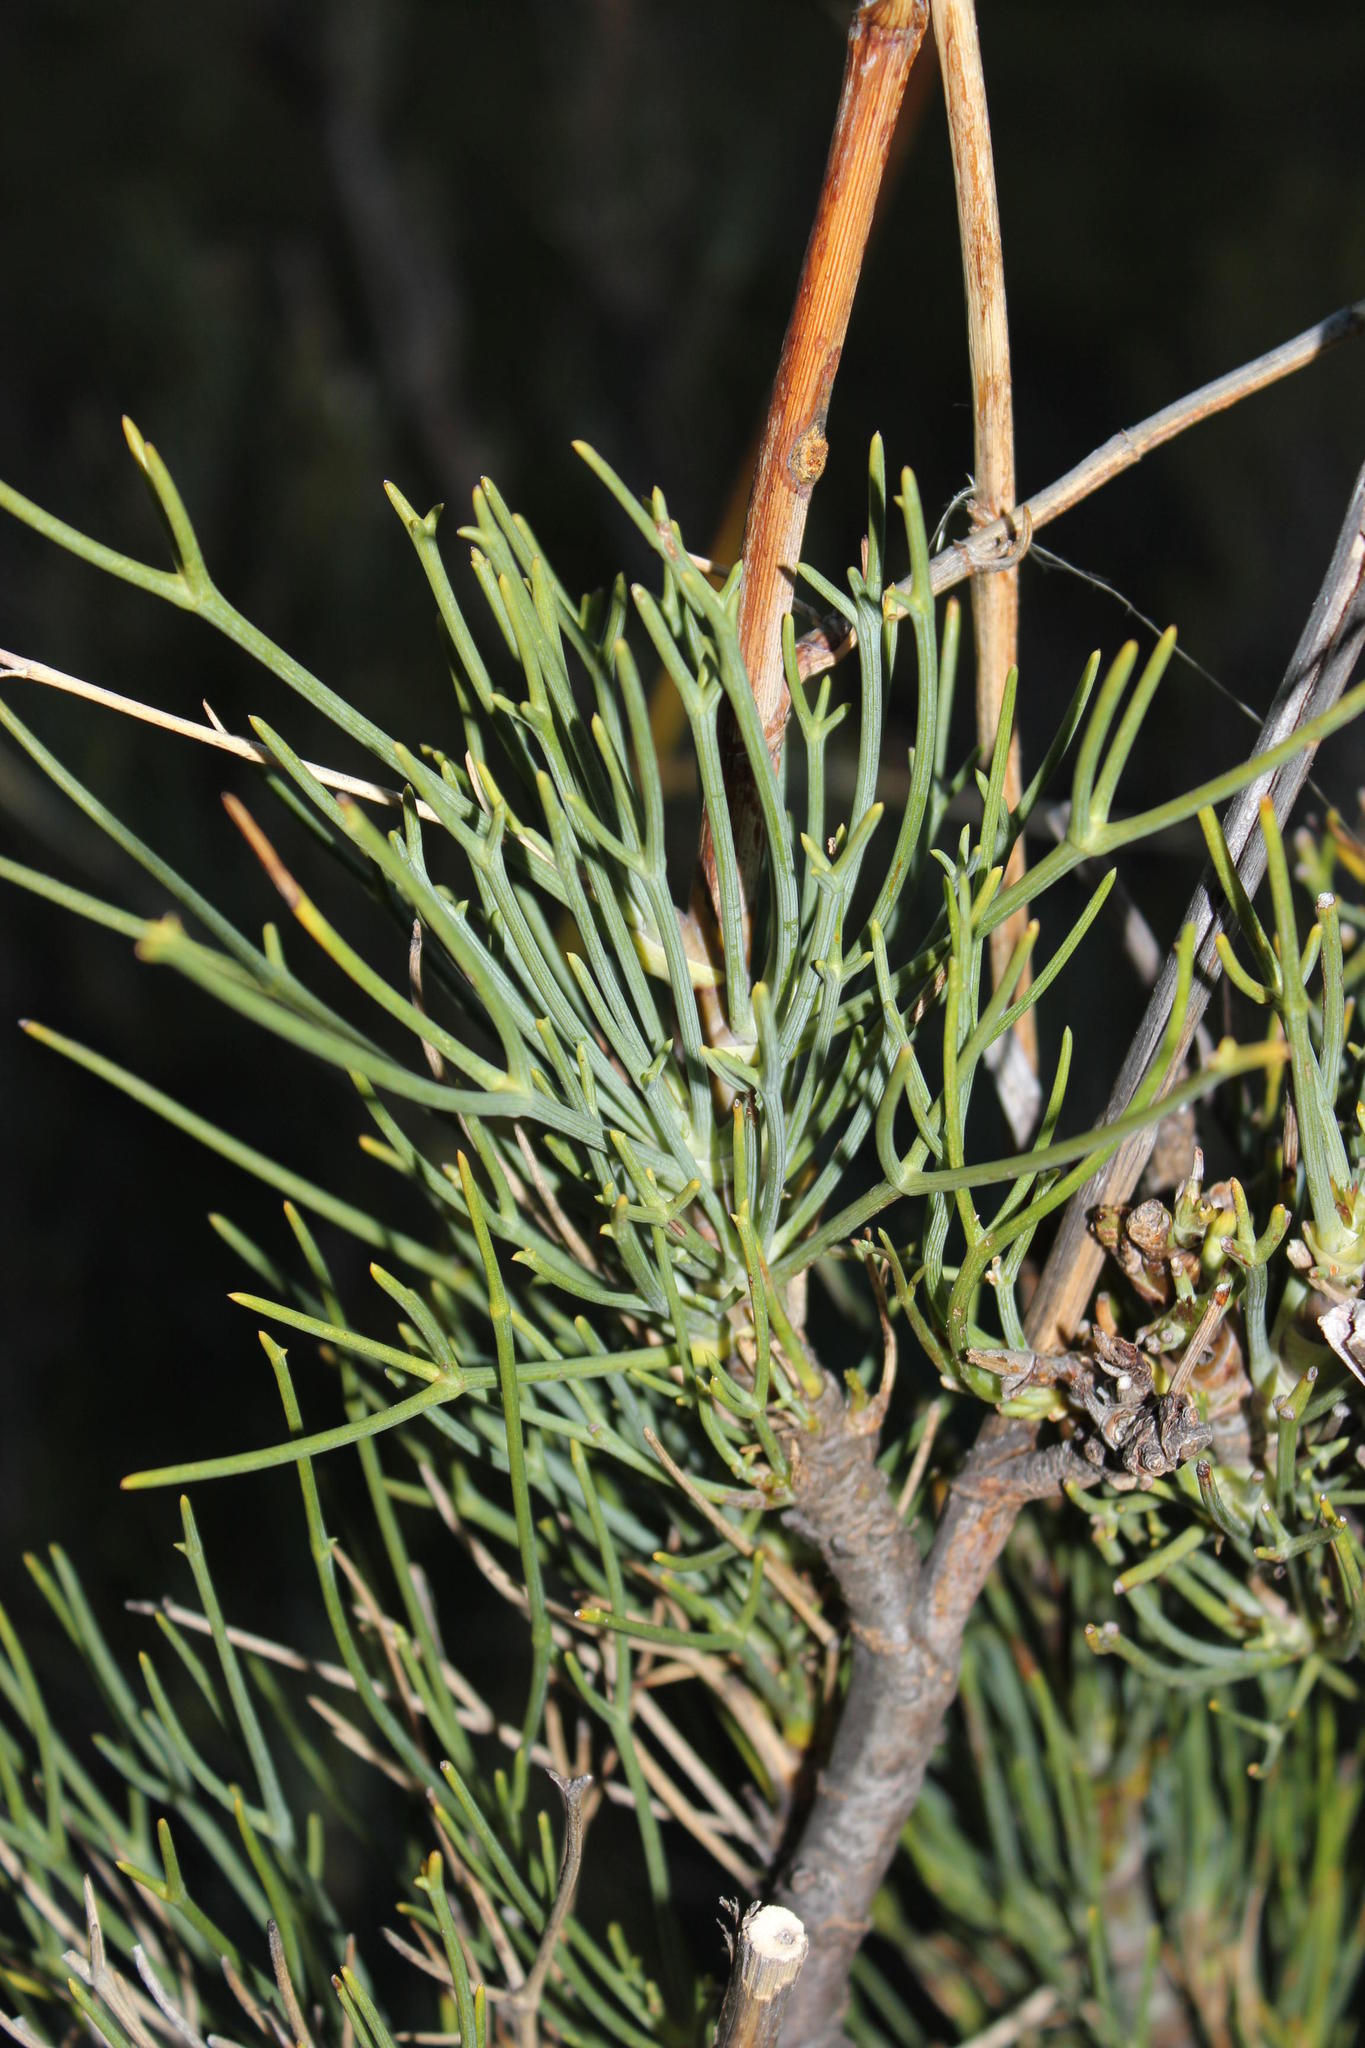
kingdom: Plantae
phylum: Tracheophyta
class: Magnoliopsida
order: Apiales
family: Apiaceae
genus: Anginon
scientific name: Anginon swellendamense
